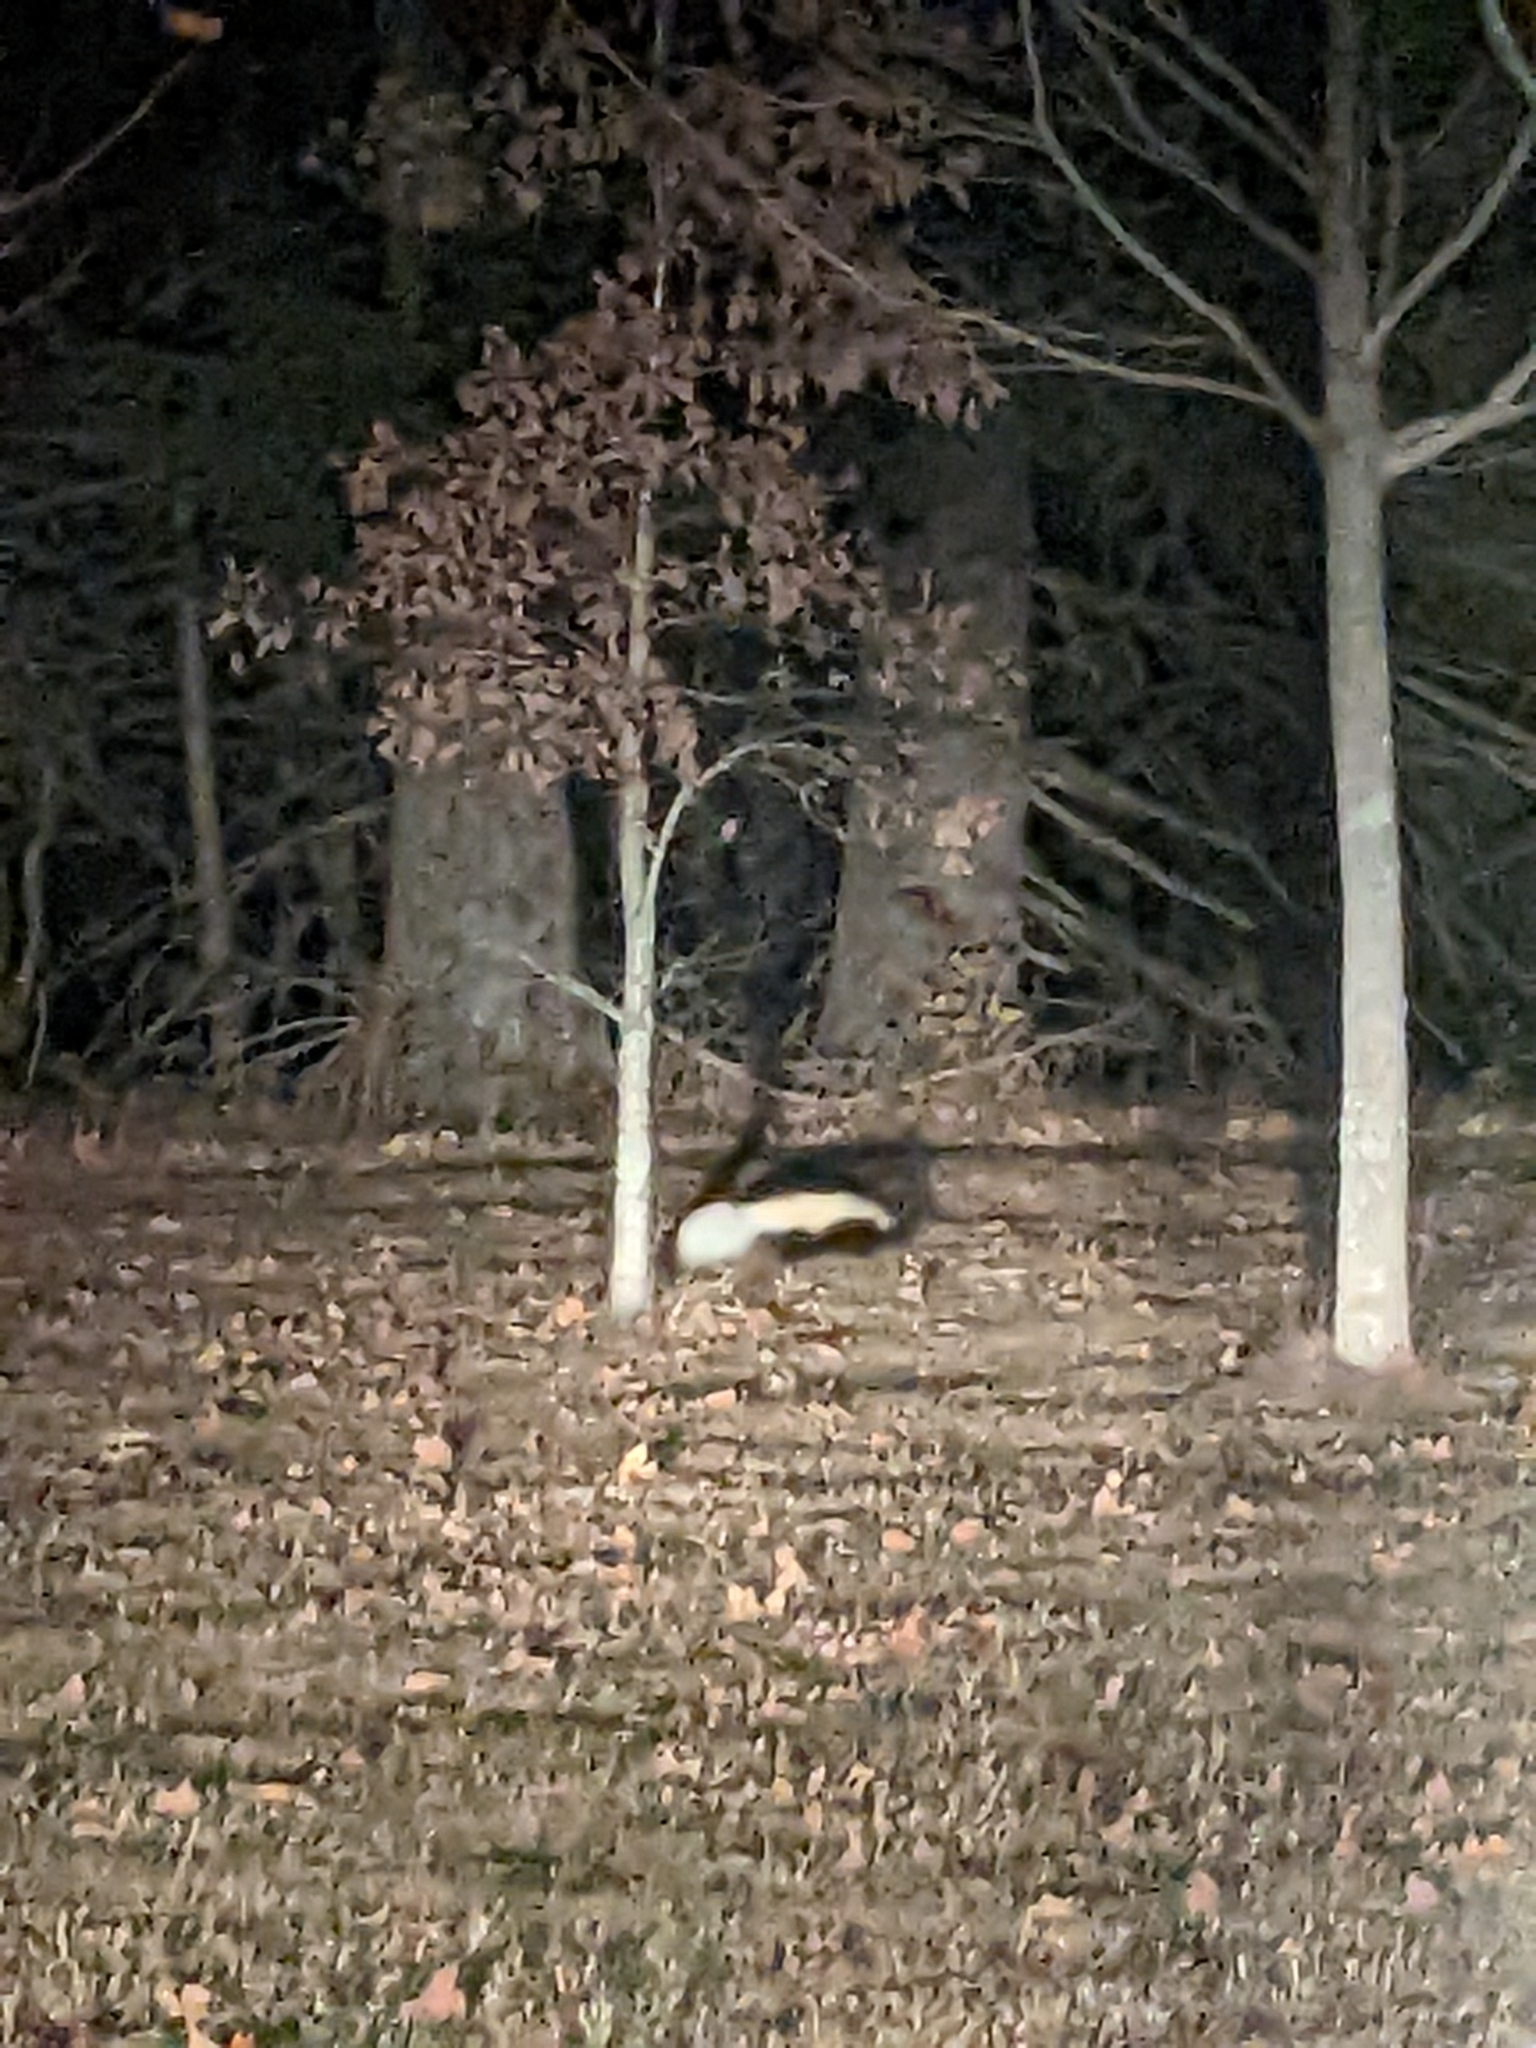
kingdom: Animalia
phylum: Chordata
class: Mammalia
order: Carnivora
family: Mephitidae
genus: Mephitis
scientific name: Mephitis mephitis
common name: Striped skunk
